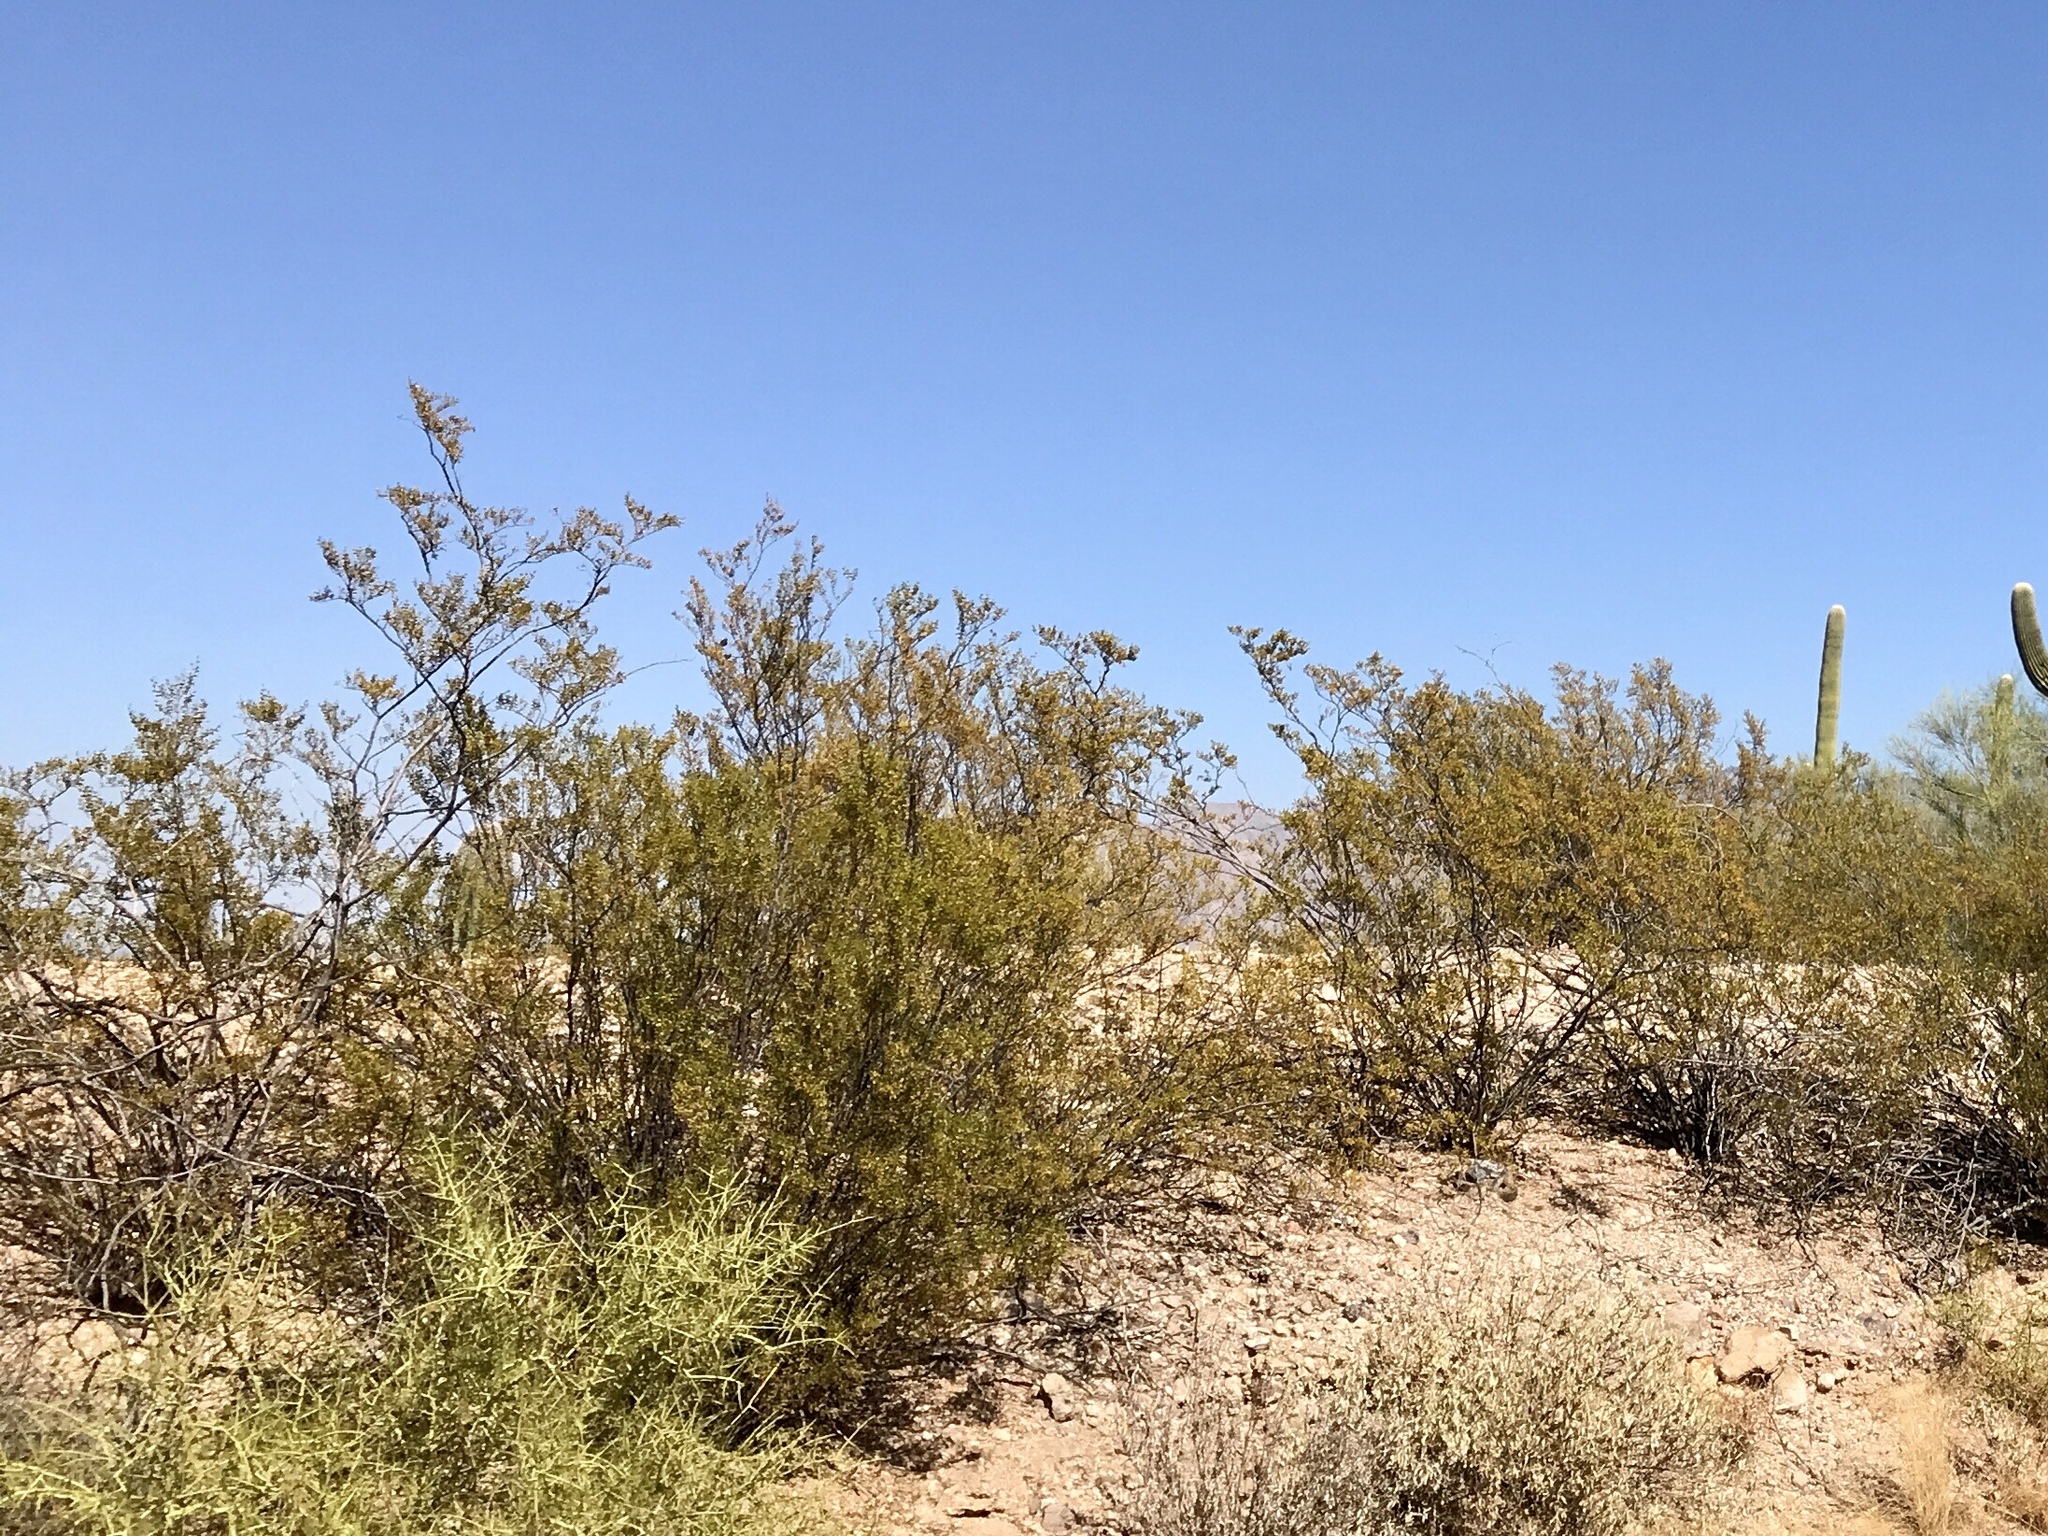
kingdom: Plantae
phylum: Tracheophyta
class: Magnoliopsida
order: Zygophyllales
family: Zygophyllaceae
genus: Larrea
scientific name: Larrea tridentata
